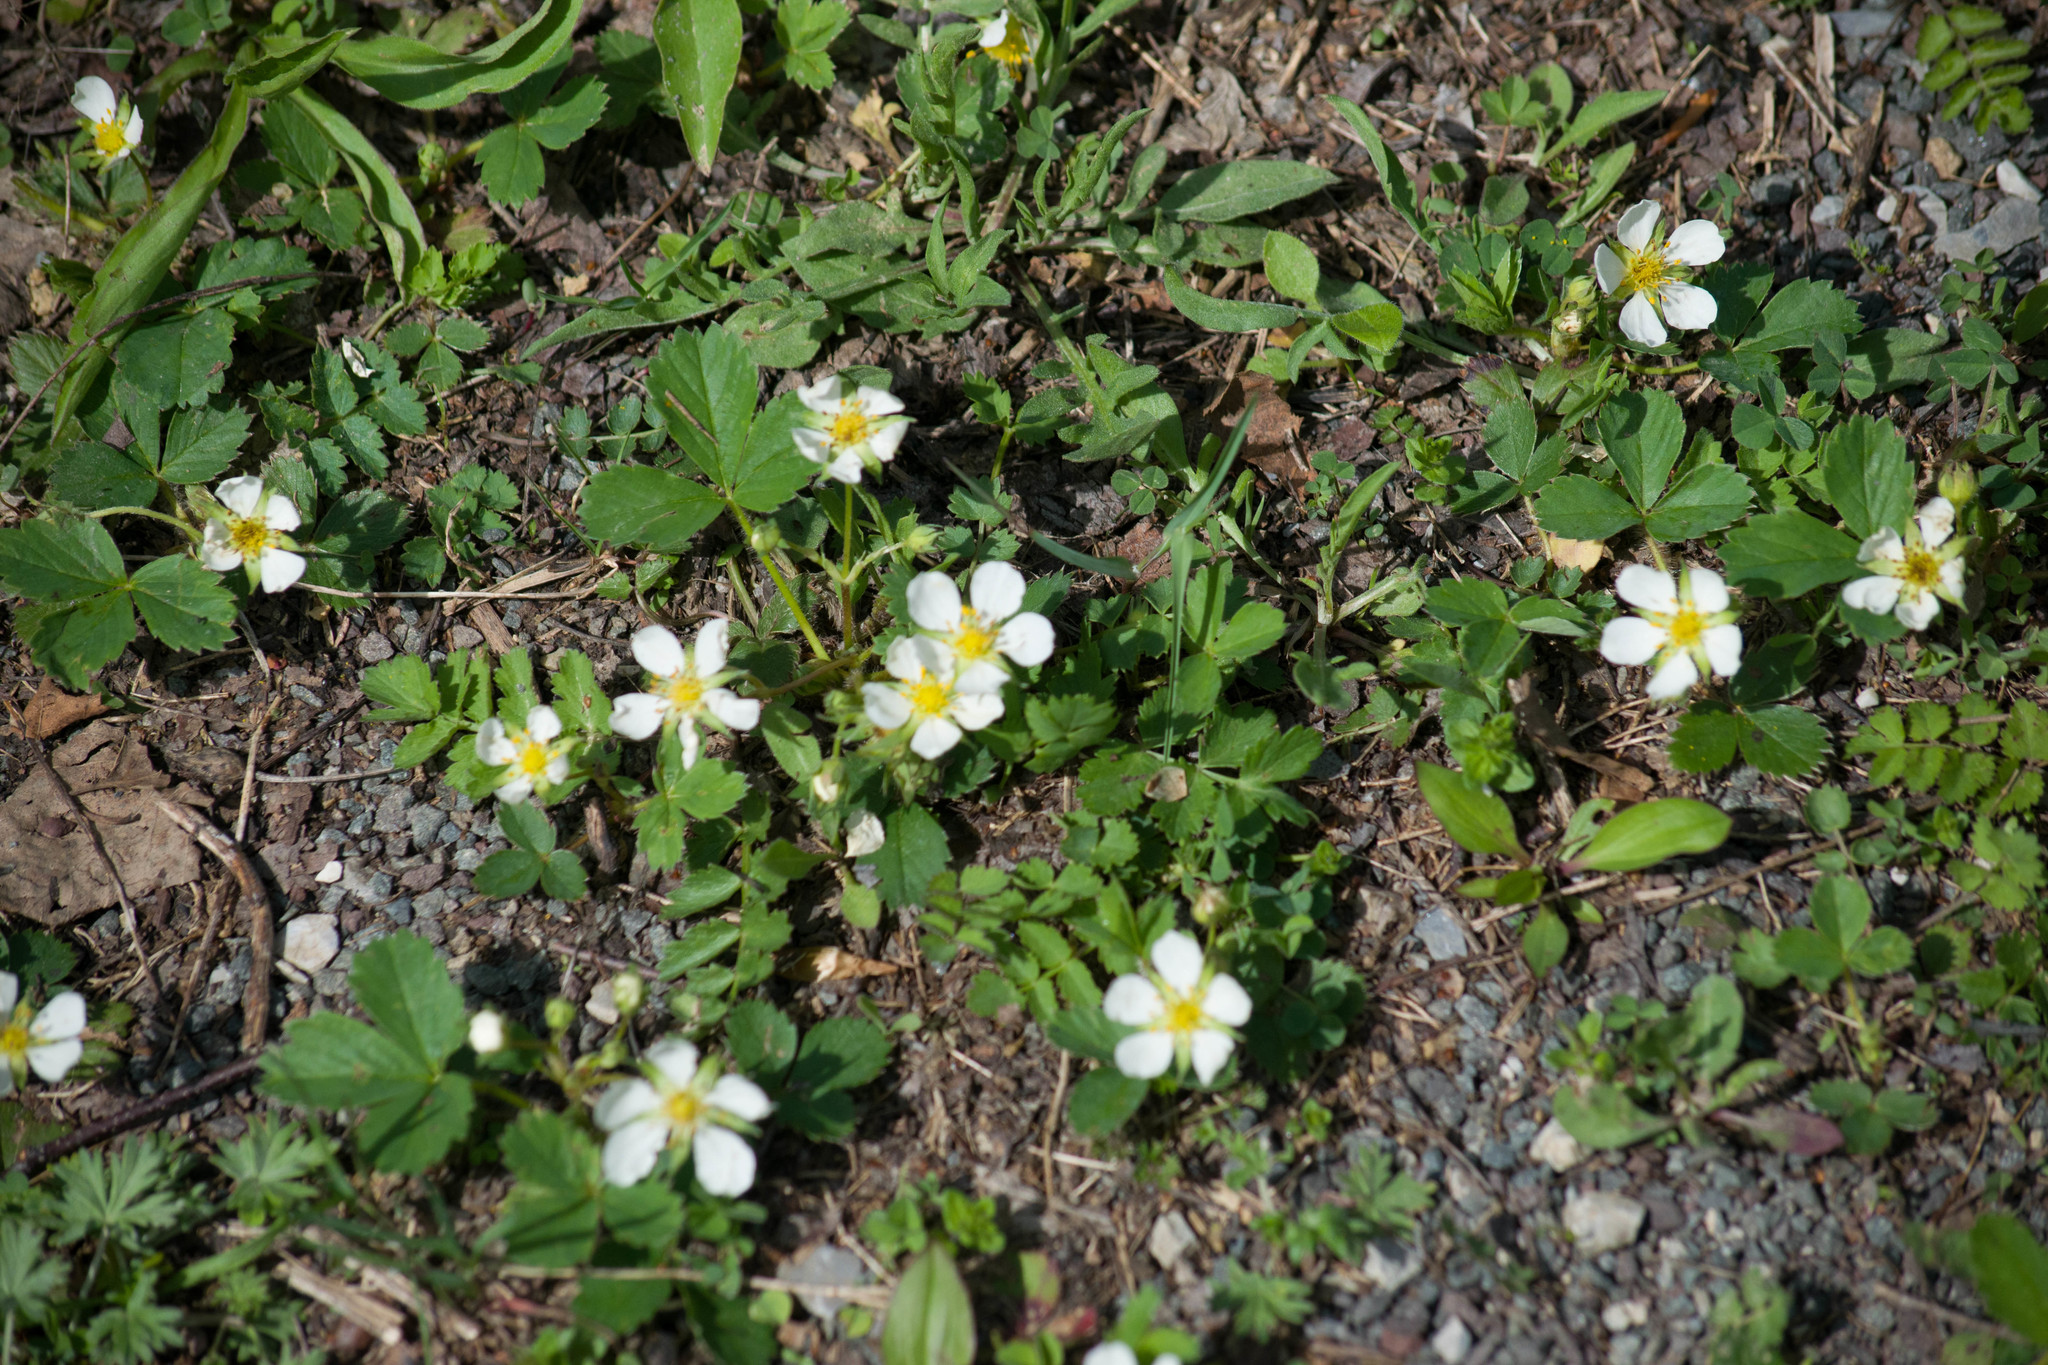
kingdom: Plantae
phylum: Tracheophyta
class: Magnoliopsida
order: Rosales
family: Rosaceae
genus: Fragaria
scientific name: Fragaria virginiana
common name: Thickleaved wild strawberry
